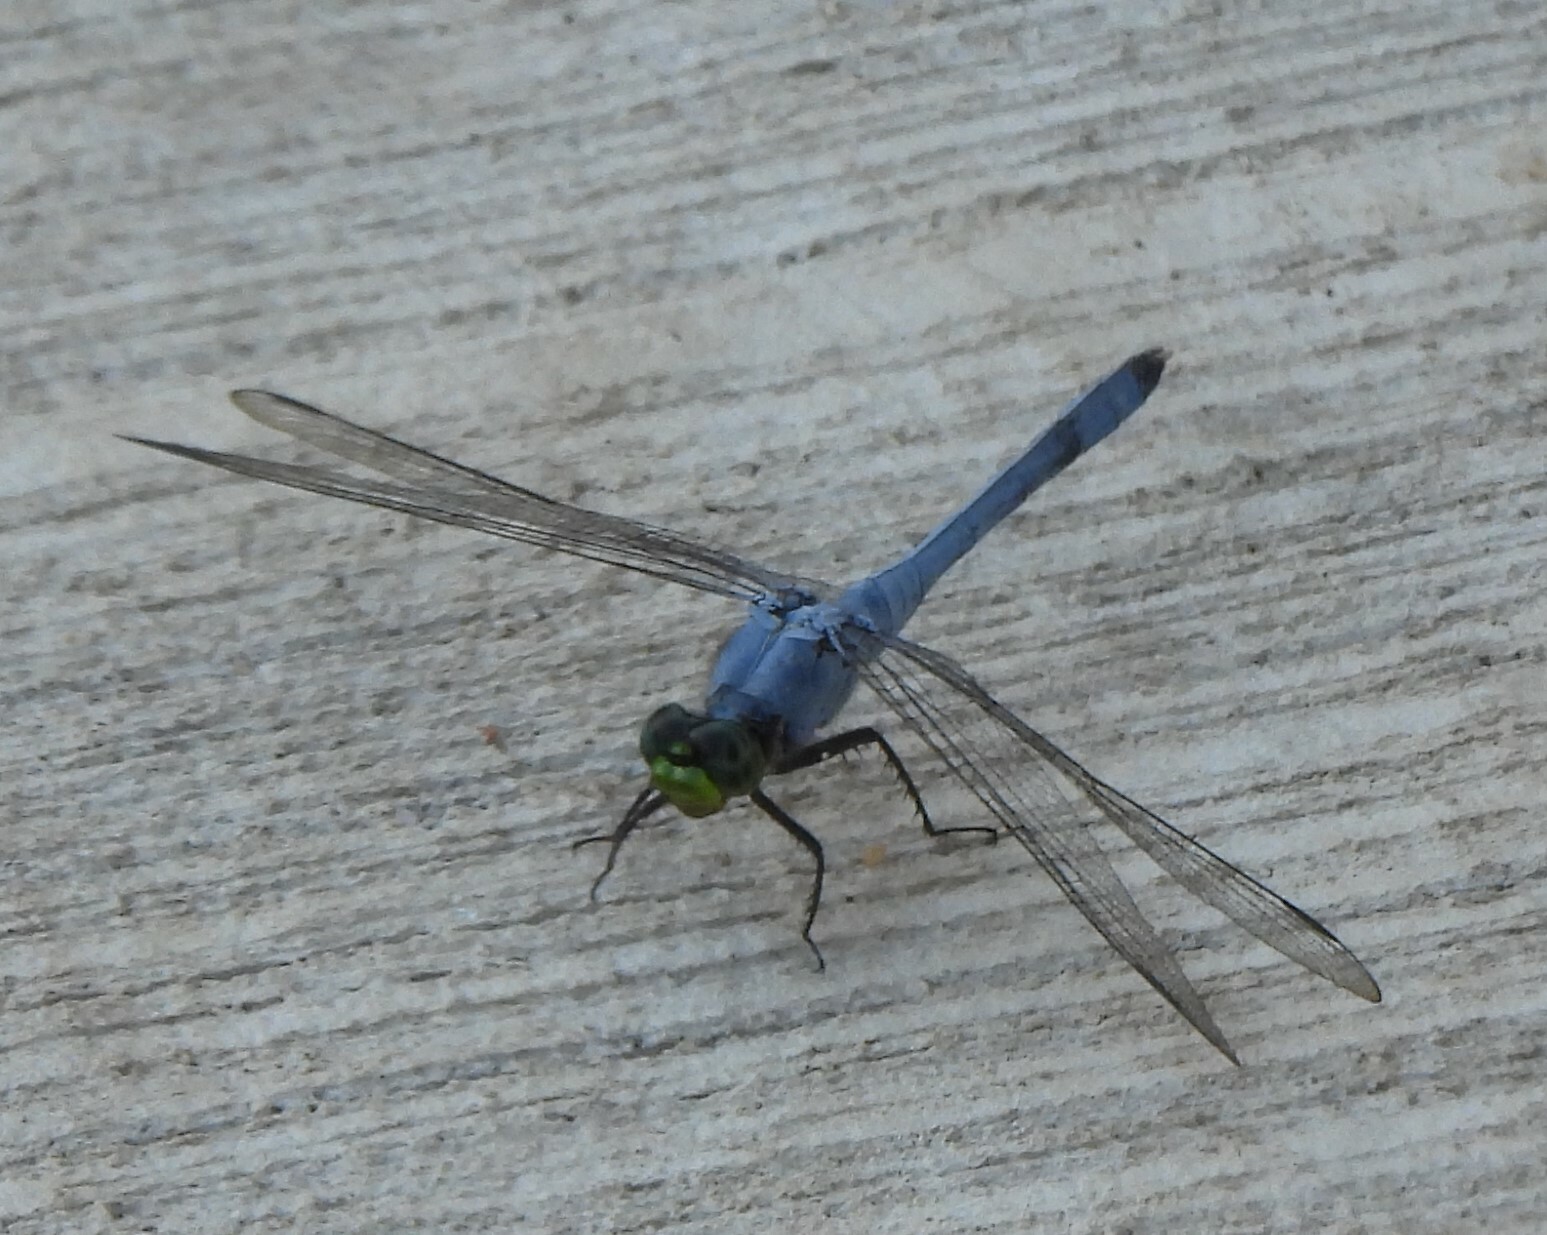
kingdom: Animalia
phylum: Arthropoda
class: Insecta
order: Odonata
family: Libellulidae
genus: Erythemis
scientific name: Erythemis simplicicollis
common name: Eastern pondhawk
